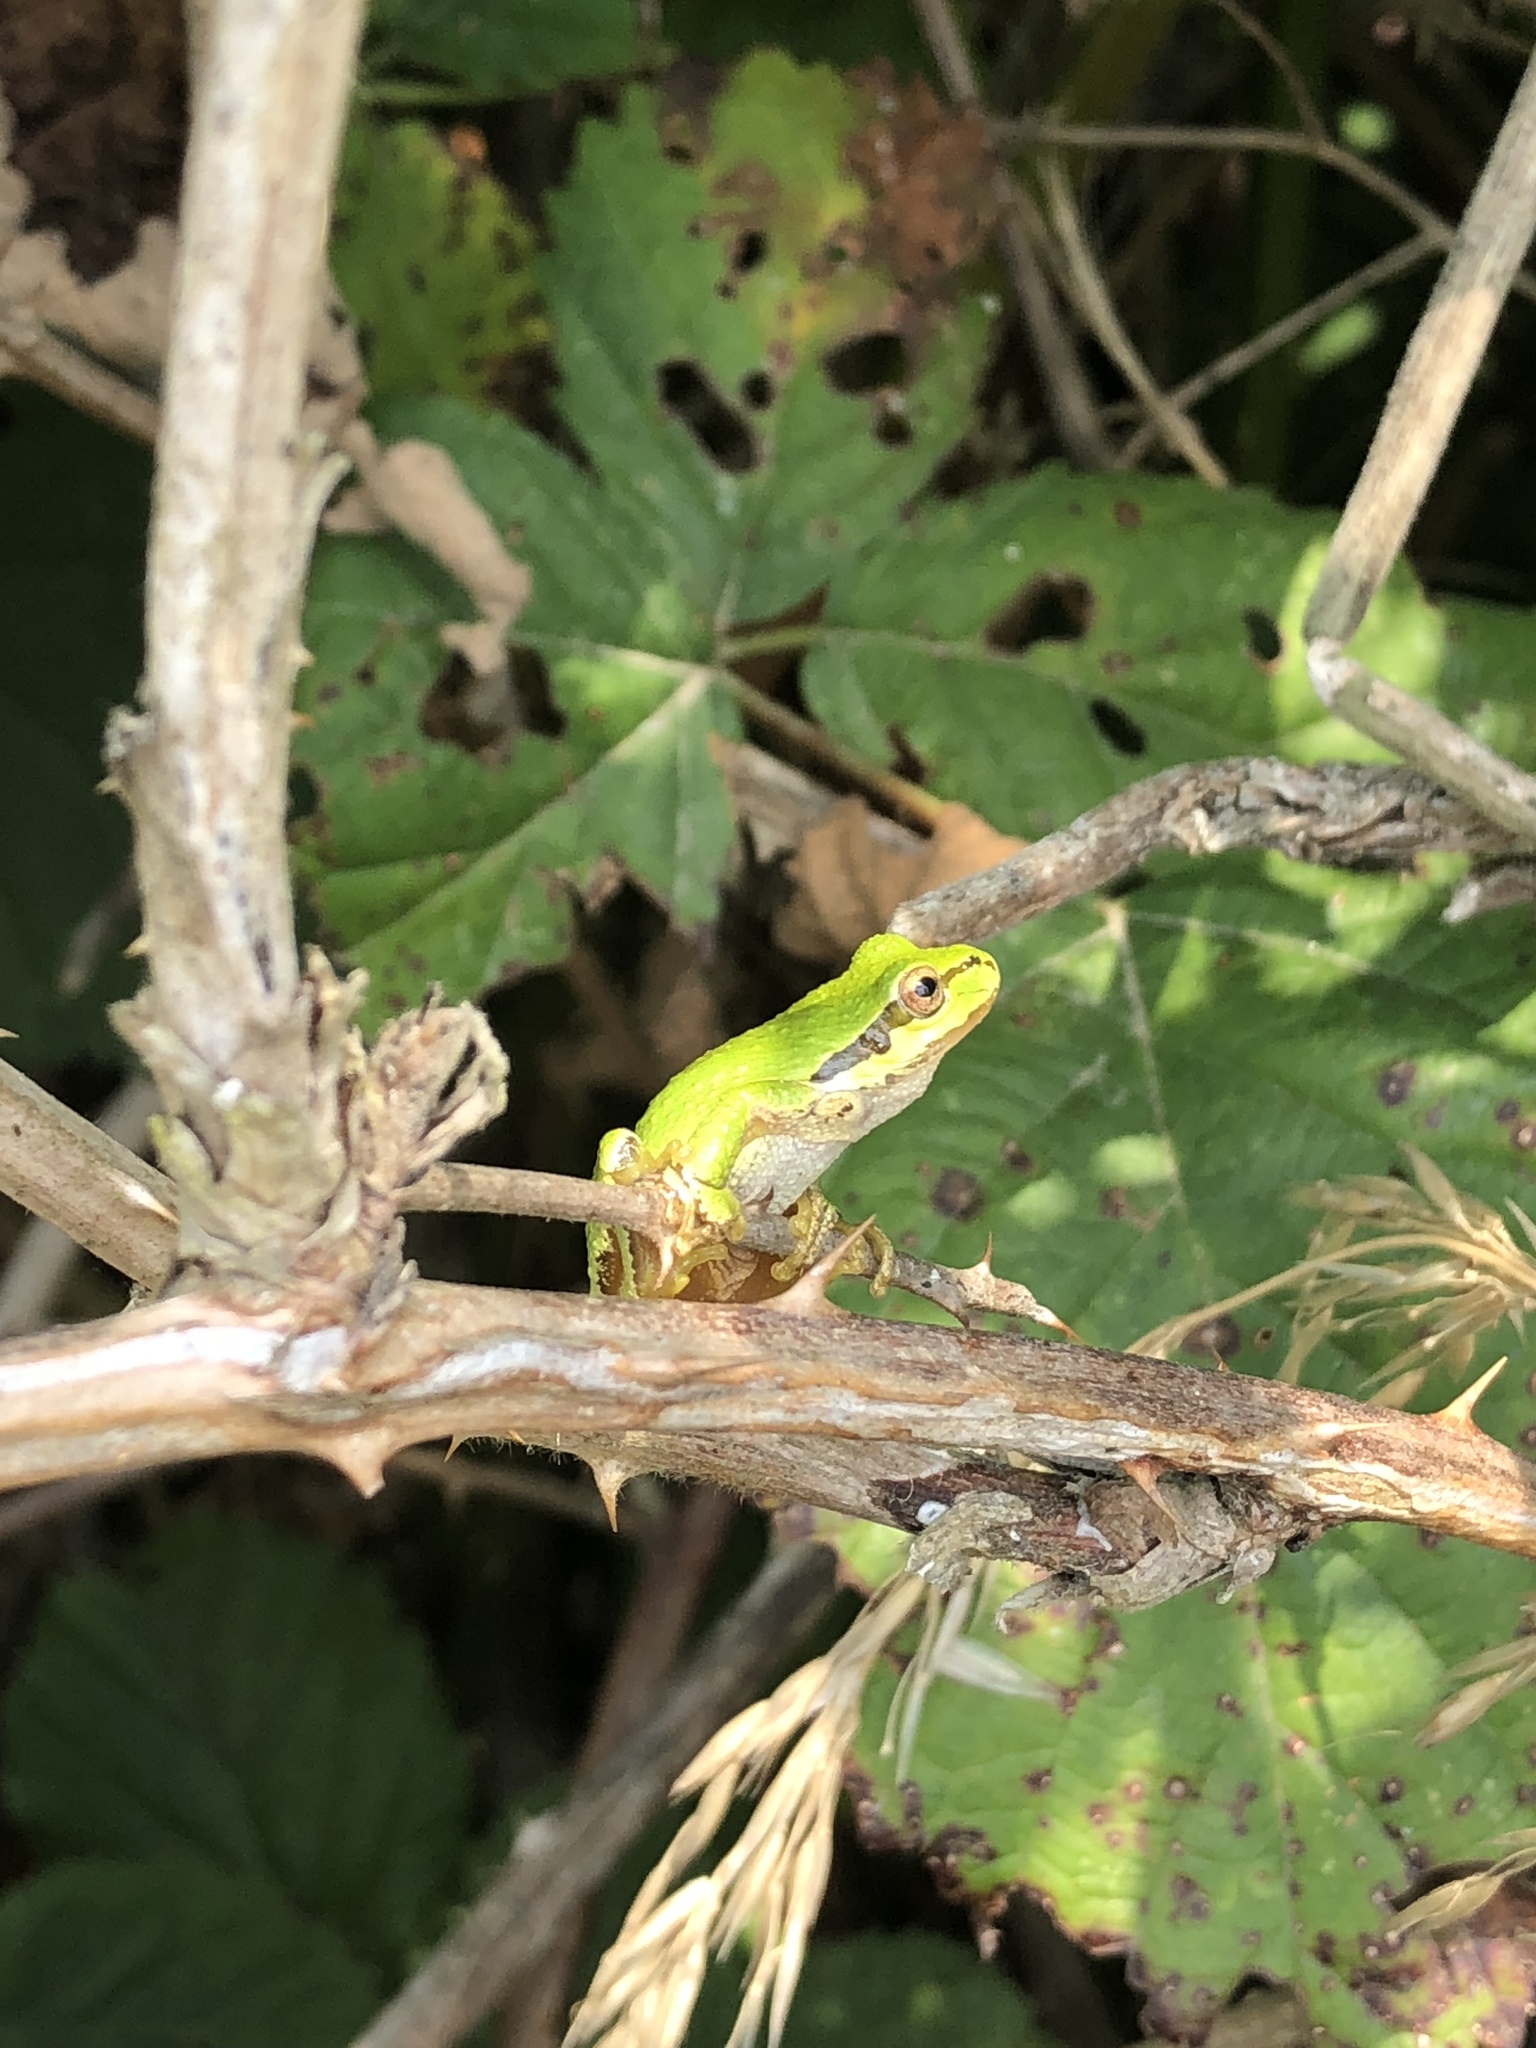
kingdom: Animalia
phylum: Chordata
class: Amphibia
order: Anura
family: Hylidae
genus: Pseudacris
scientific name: Pseudacris regilla
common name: Pacific chorus frog
